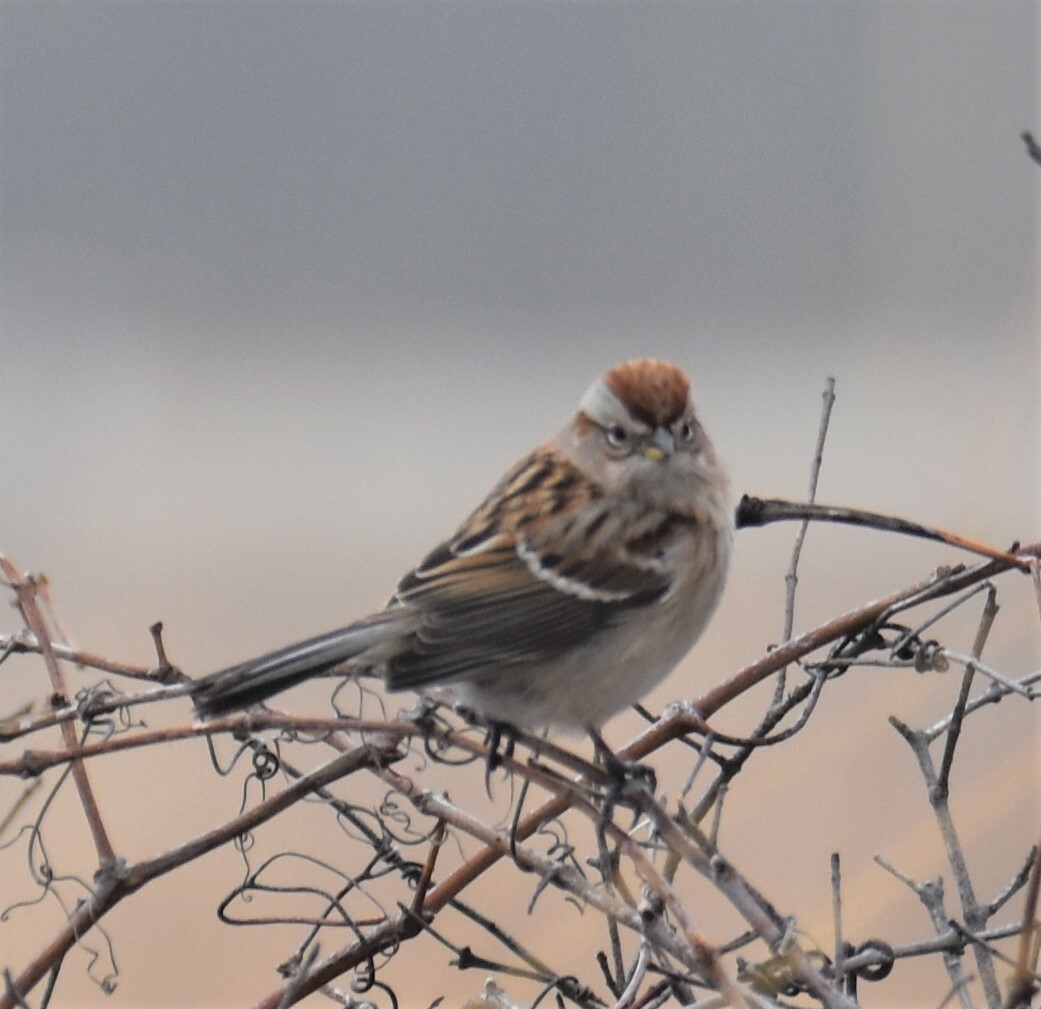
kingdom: Animalia
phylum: Chordata
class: Aves
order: Passeriformes
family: Passerellidae
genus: Spizelloides
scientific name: Spizelloides arborea
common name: American tree sparrow
